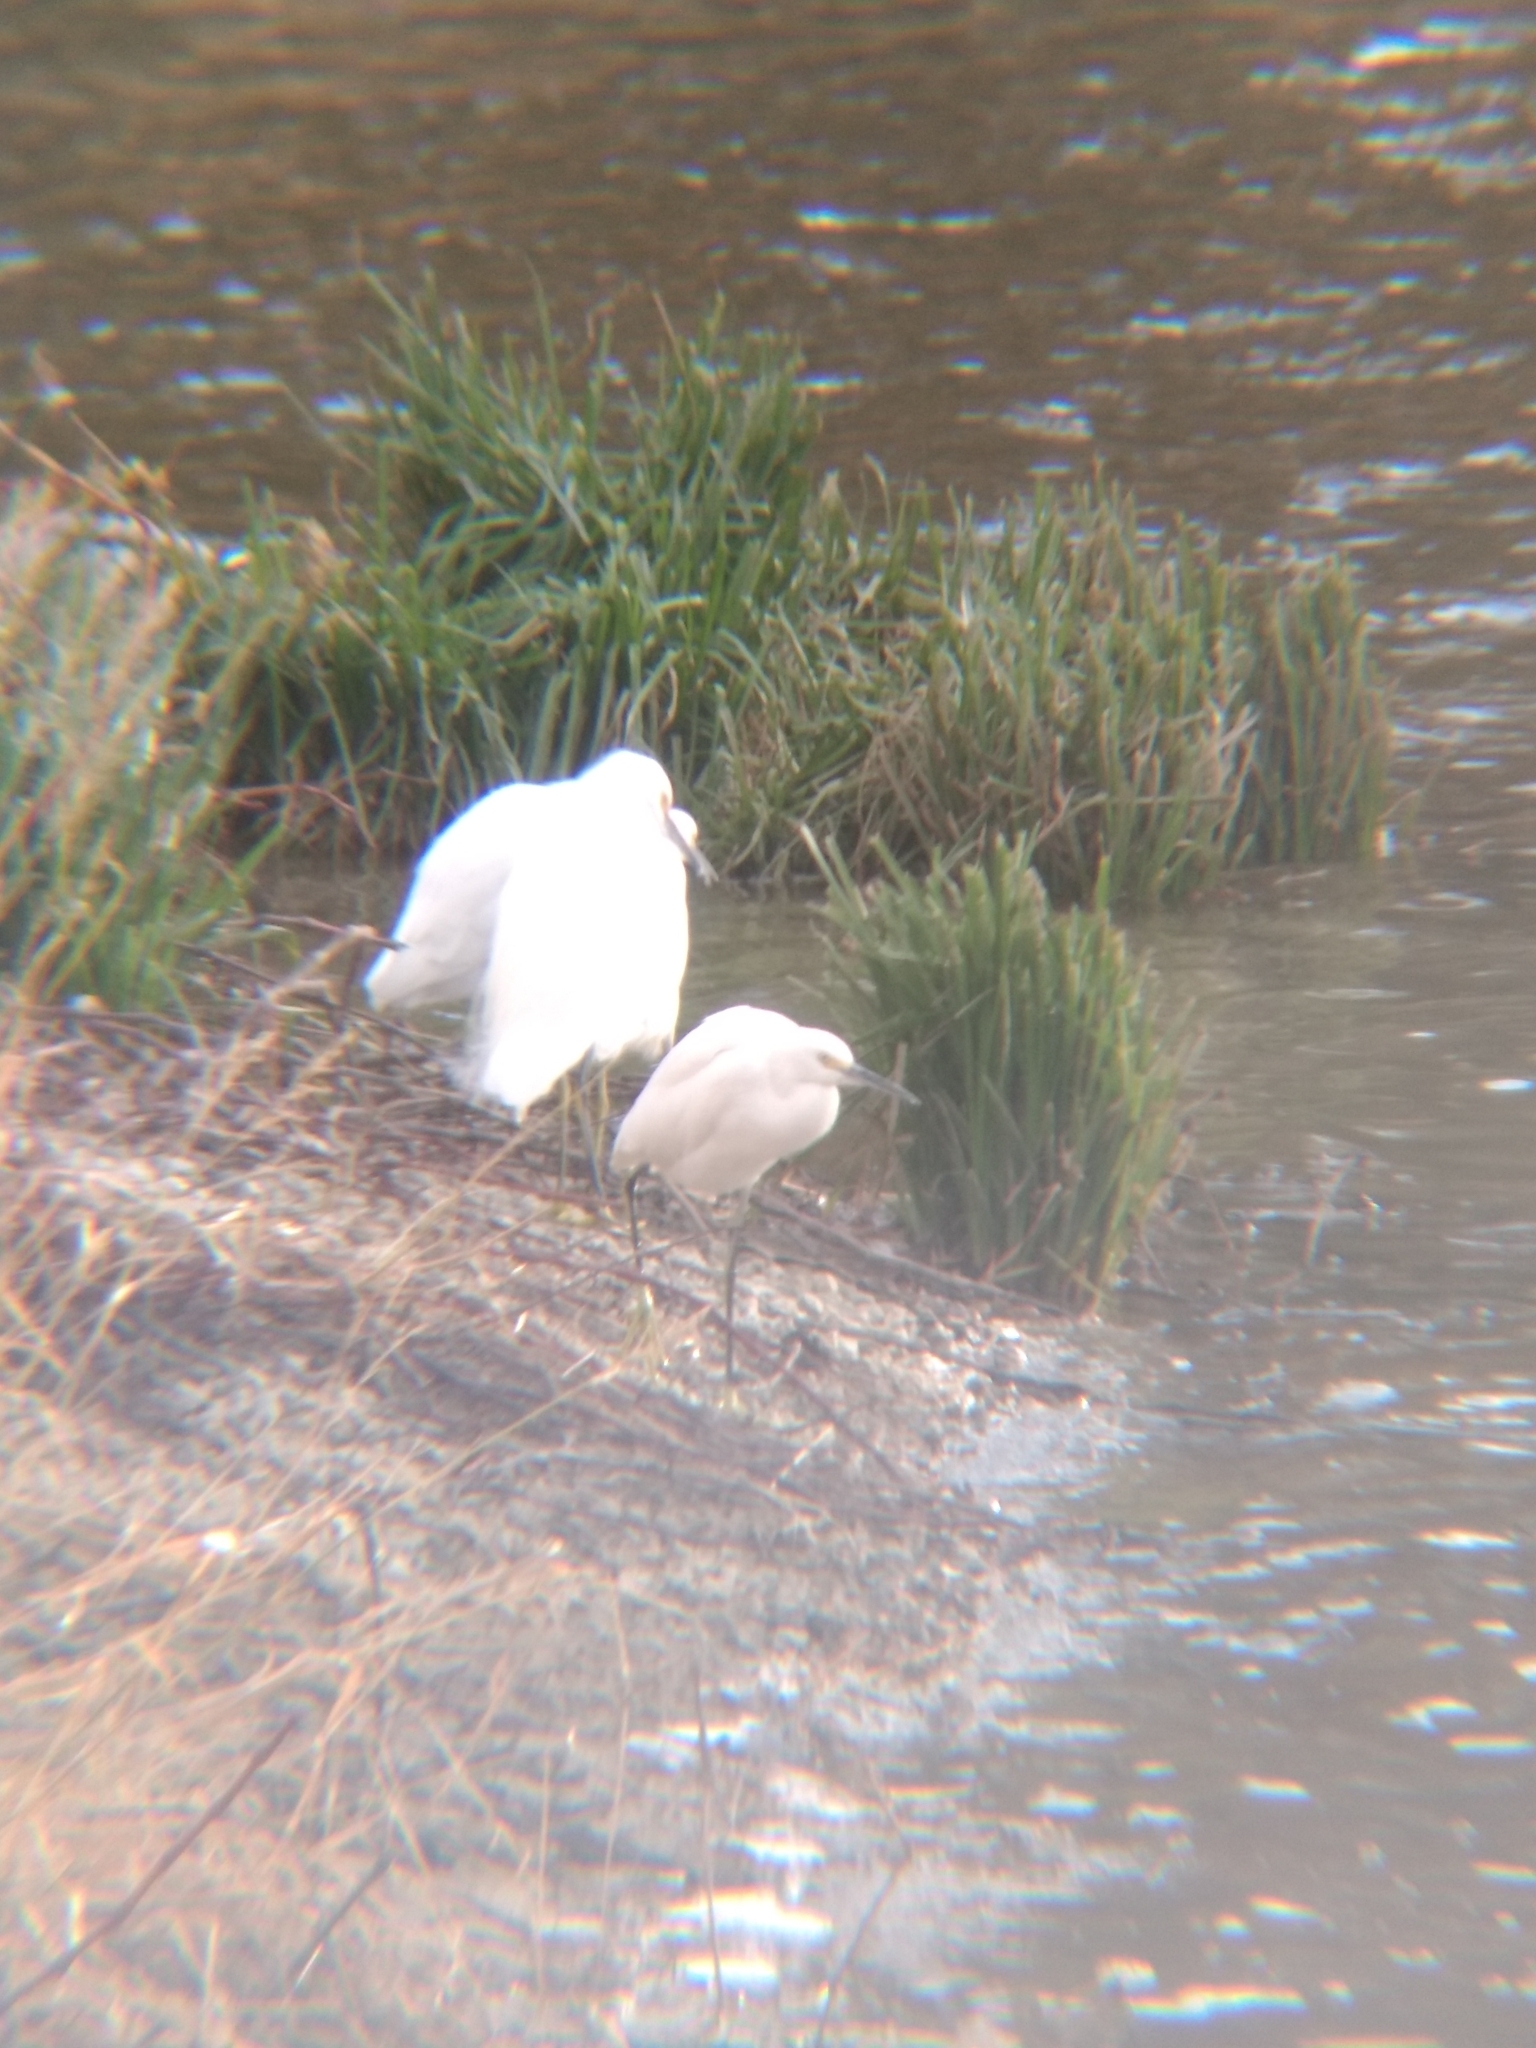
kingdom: Animalia
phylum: Chordata
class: Aves
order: Pelecaniformes
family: Ardeidae
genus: Egretta
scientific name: Egretta thula
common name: Snowy egret
